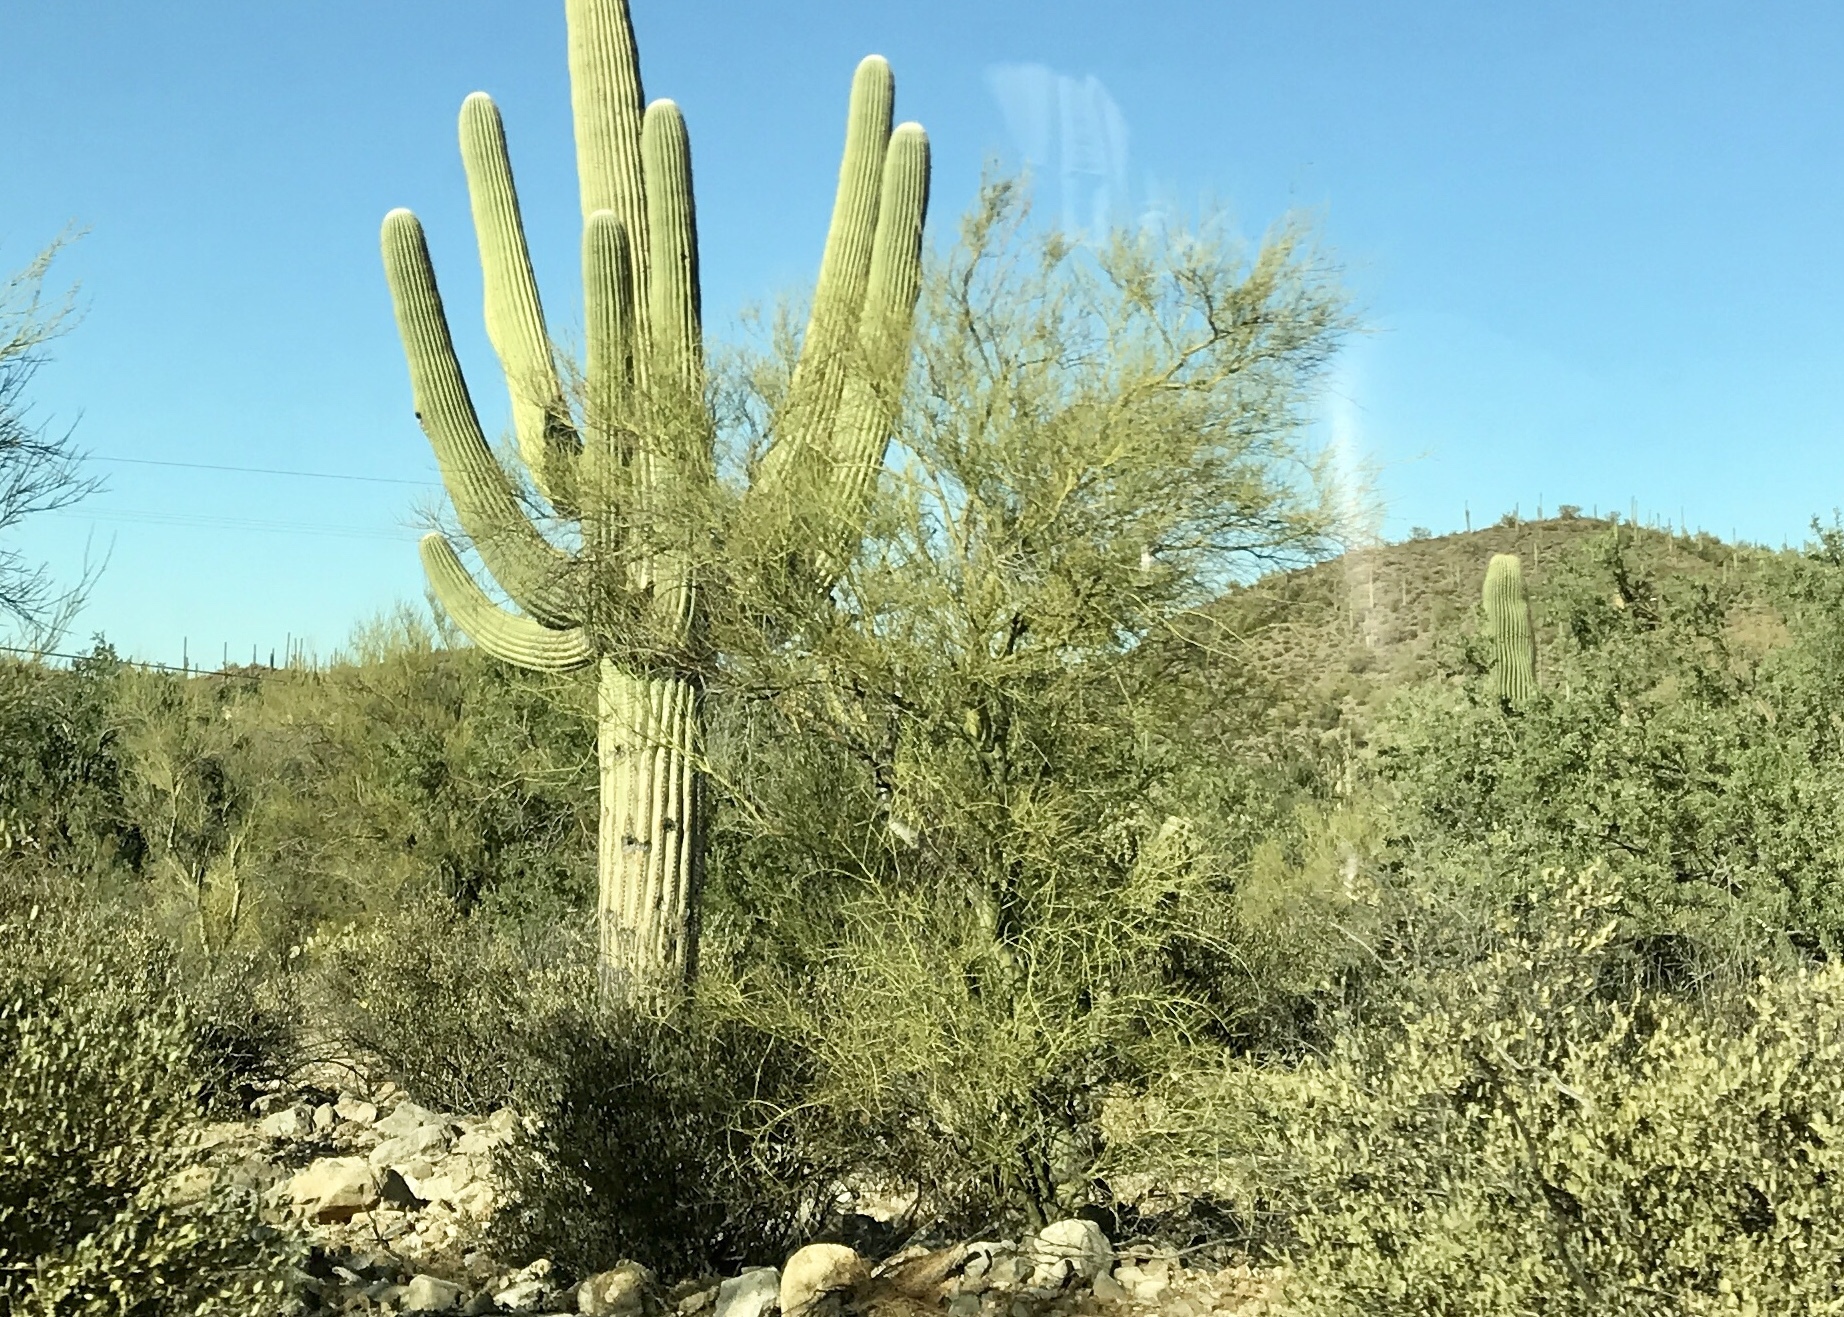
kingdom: Plantae
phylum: Tracheophyta
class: Magnoliopsida
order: Fabales
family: Fabaceae
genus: Parkinsonia
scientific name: Parkinsonia microphylla
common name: Yellow paloverde
